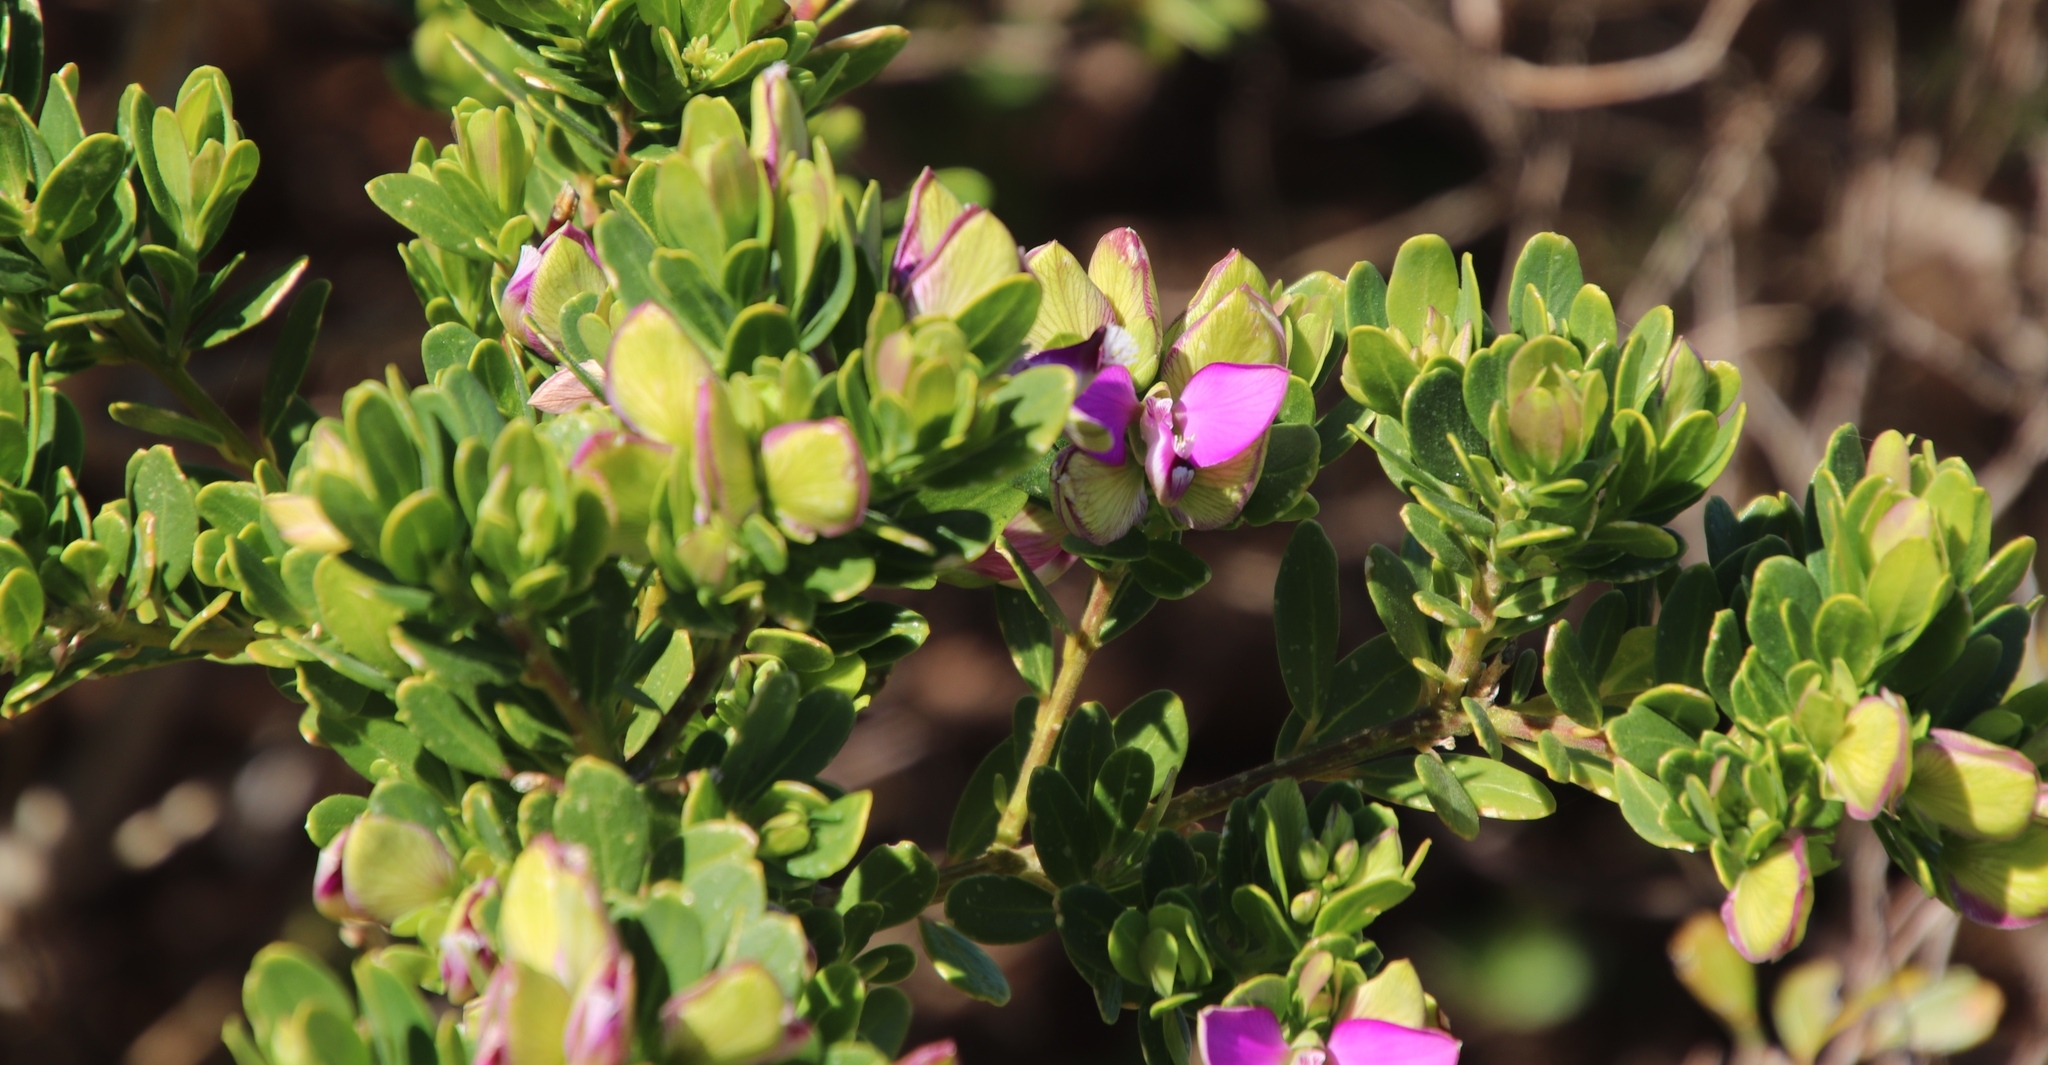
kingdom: Plantae
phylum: Tracheophyta
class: Magnoliopsida
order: Fabales
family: Polygalaceae
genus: Polygala
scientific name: Polygala myrtifolia
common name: Myrtle-leaf milkwort
